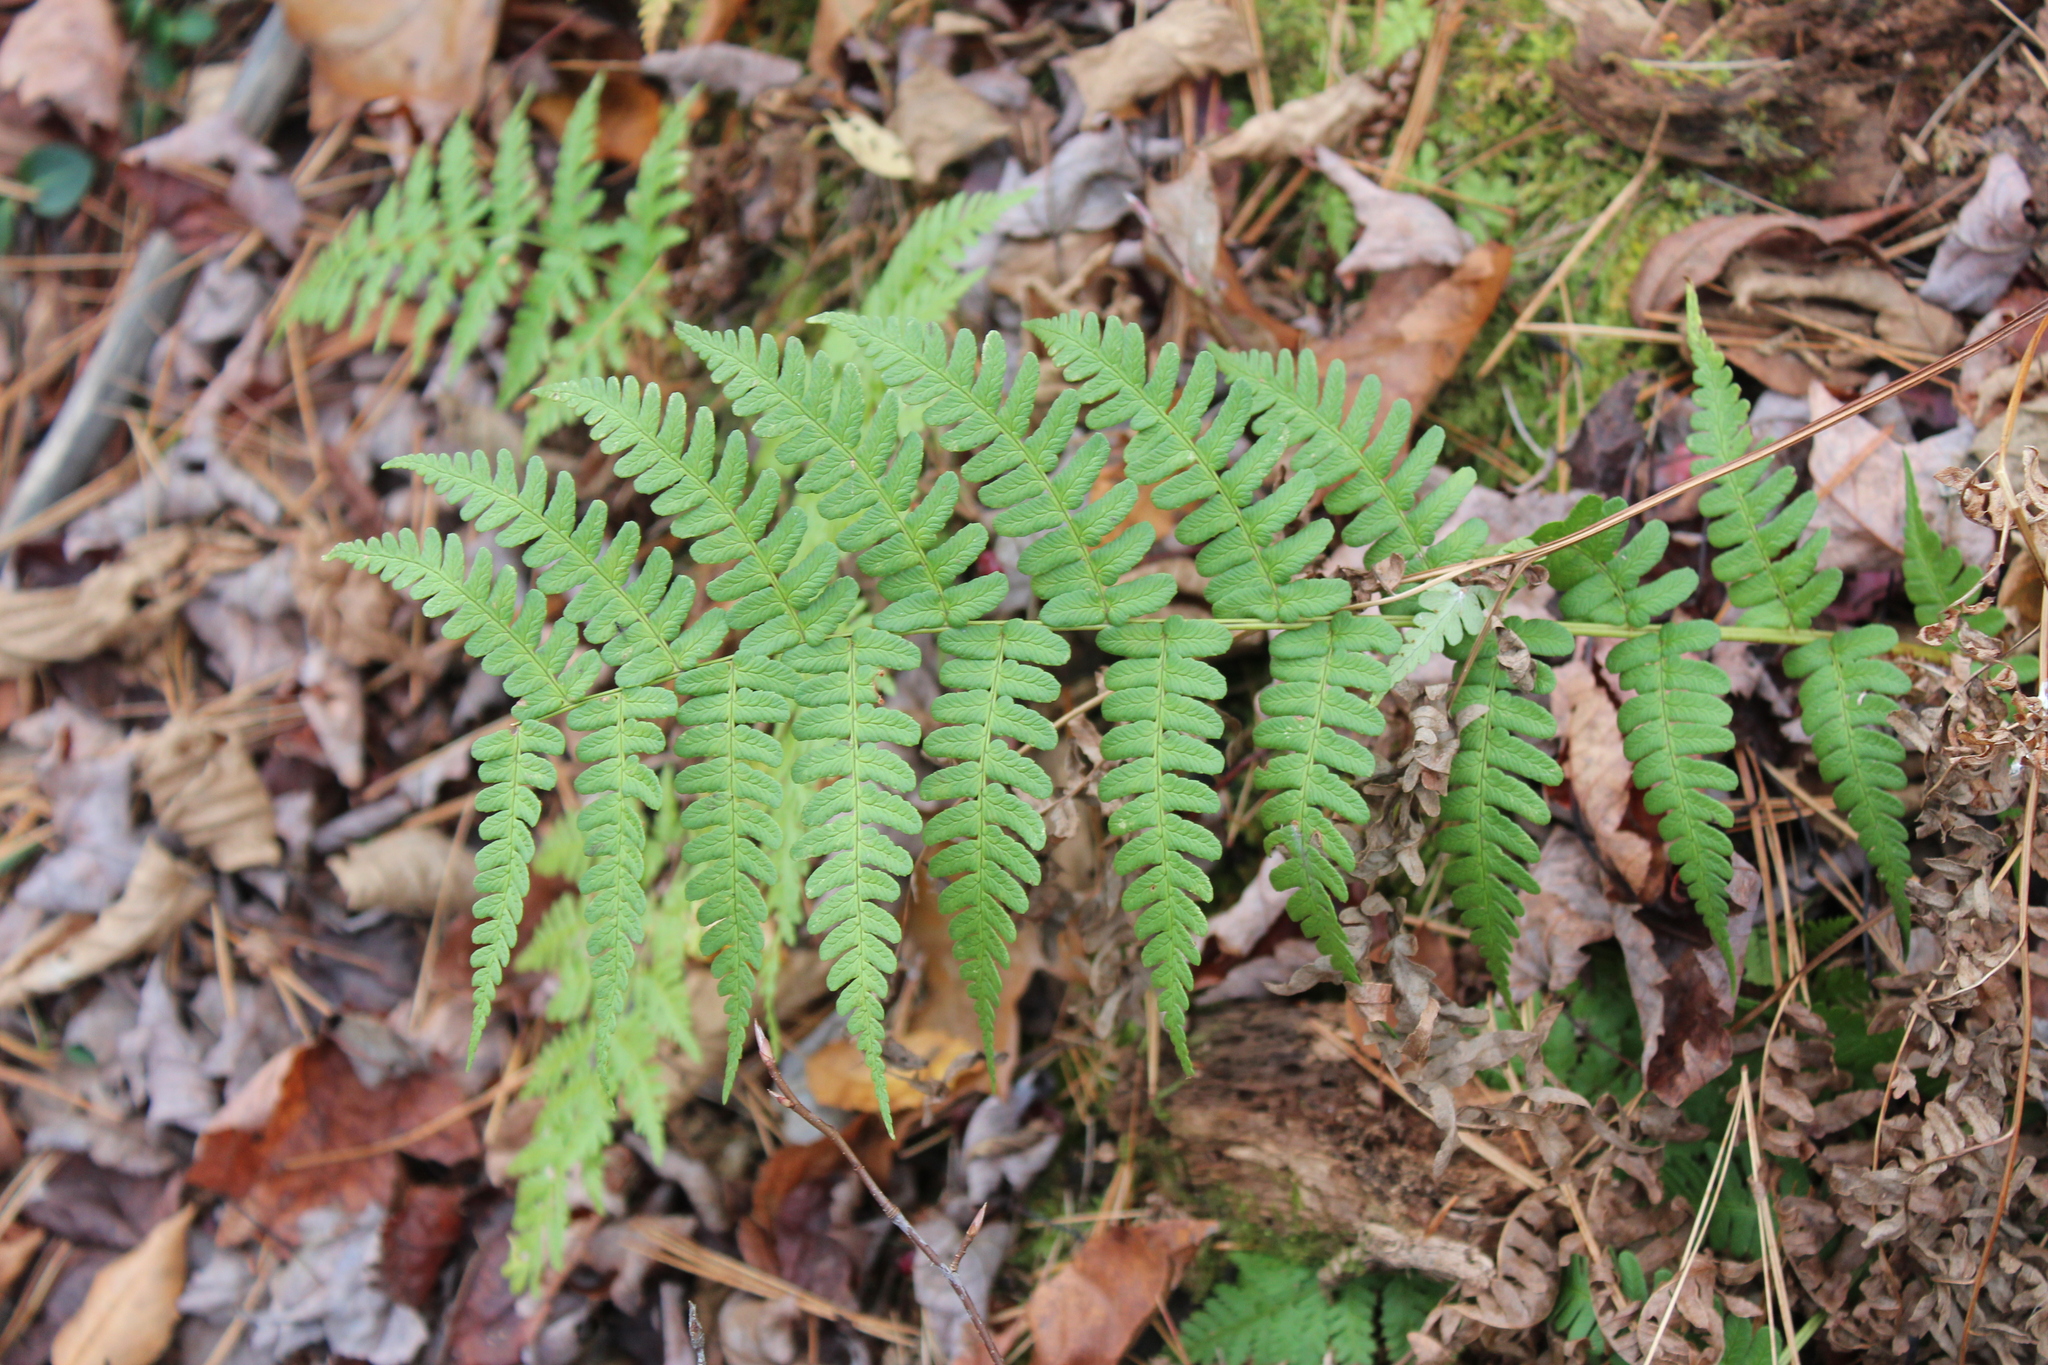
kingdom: Plantae
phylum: Tracheophyta
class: Polypodiopsida
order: Polypodiales
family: Dryopteridaceae
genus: Dryopteris
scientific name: Dryopteris marginalis
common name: Marginal wood fern
